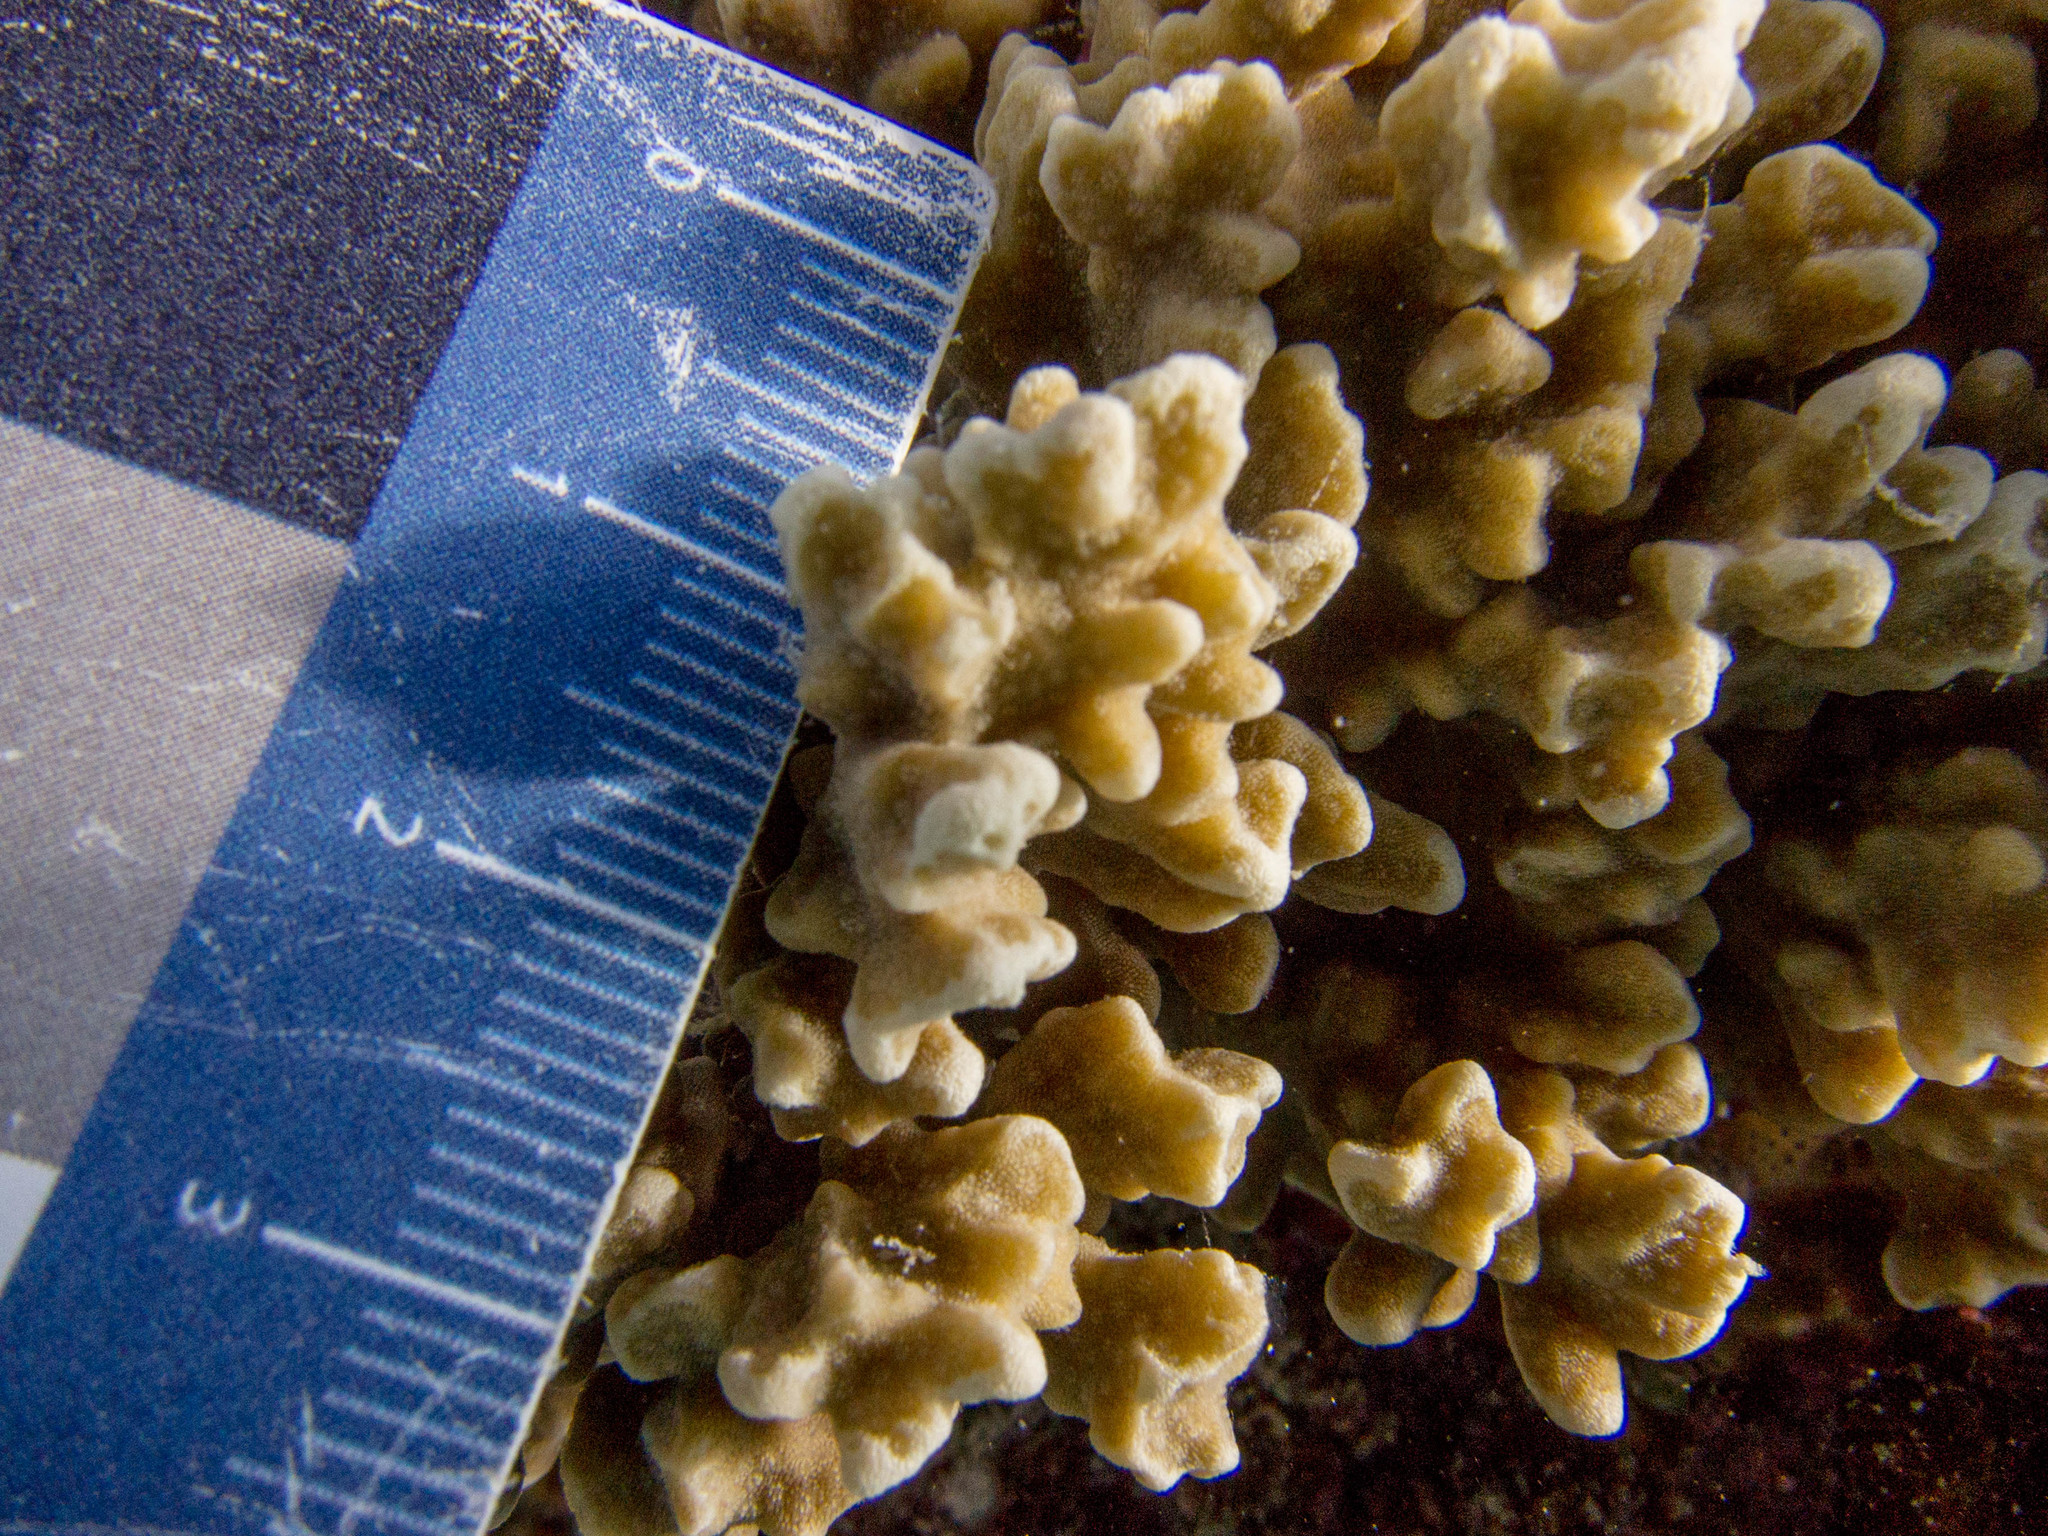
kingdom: Animalia
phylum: Cnidaria
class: Anthozoa
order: Scleractinia
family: Poritidae
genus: Porites
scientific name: Porites rus
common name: Hump coral
